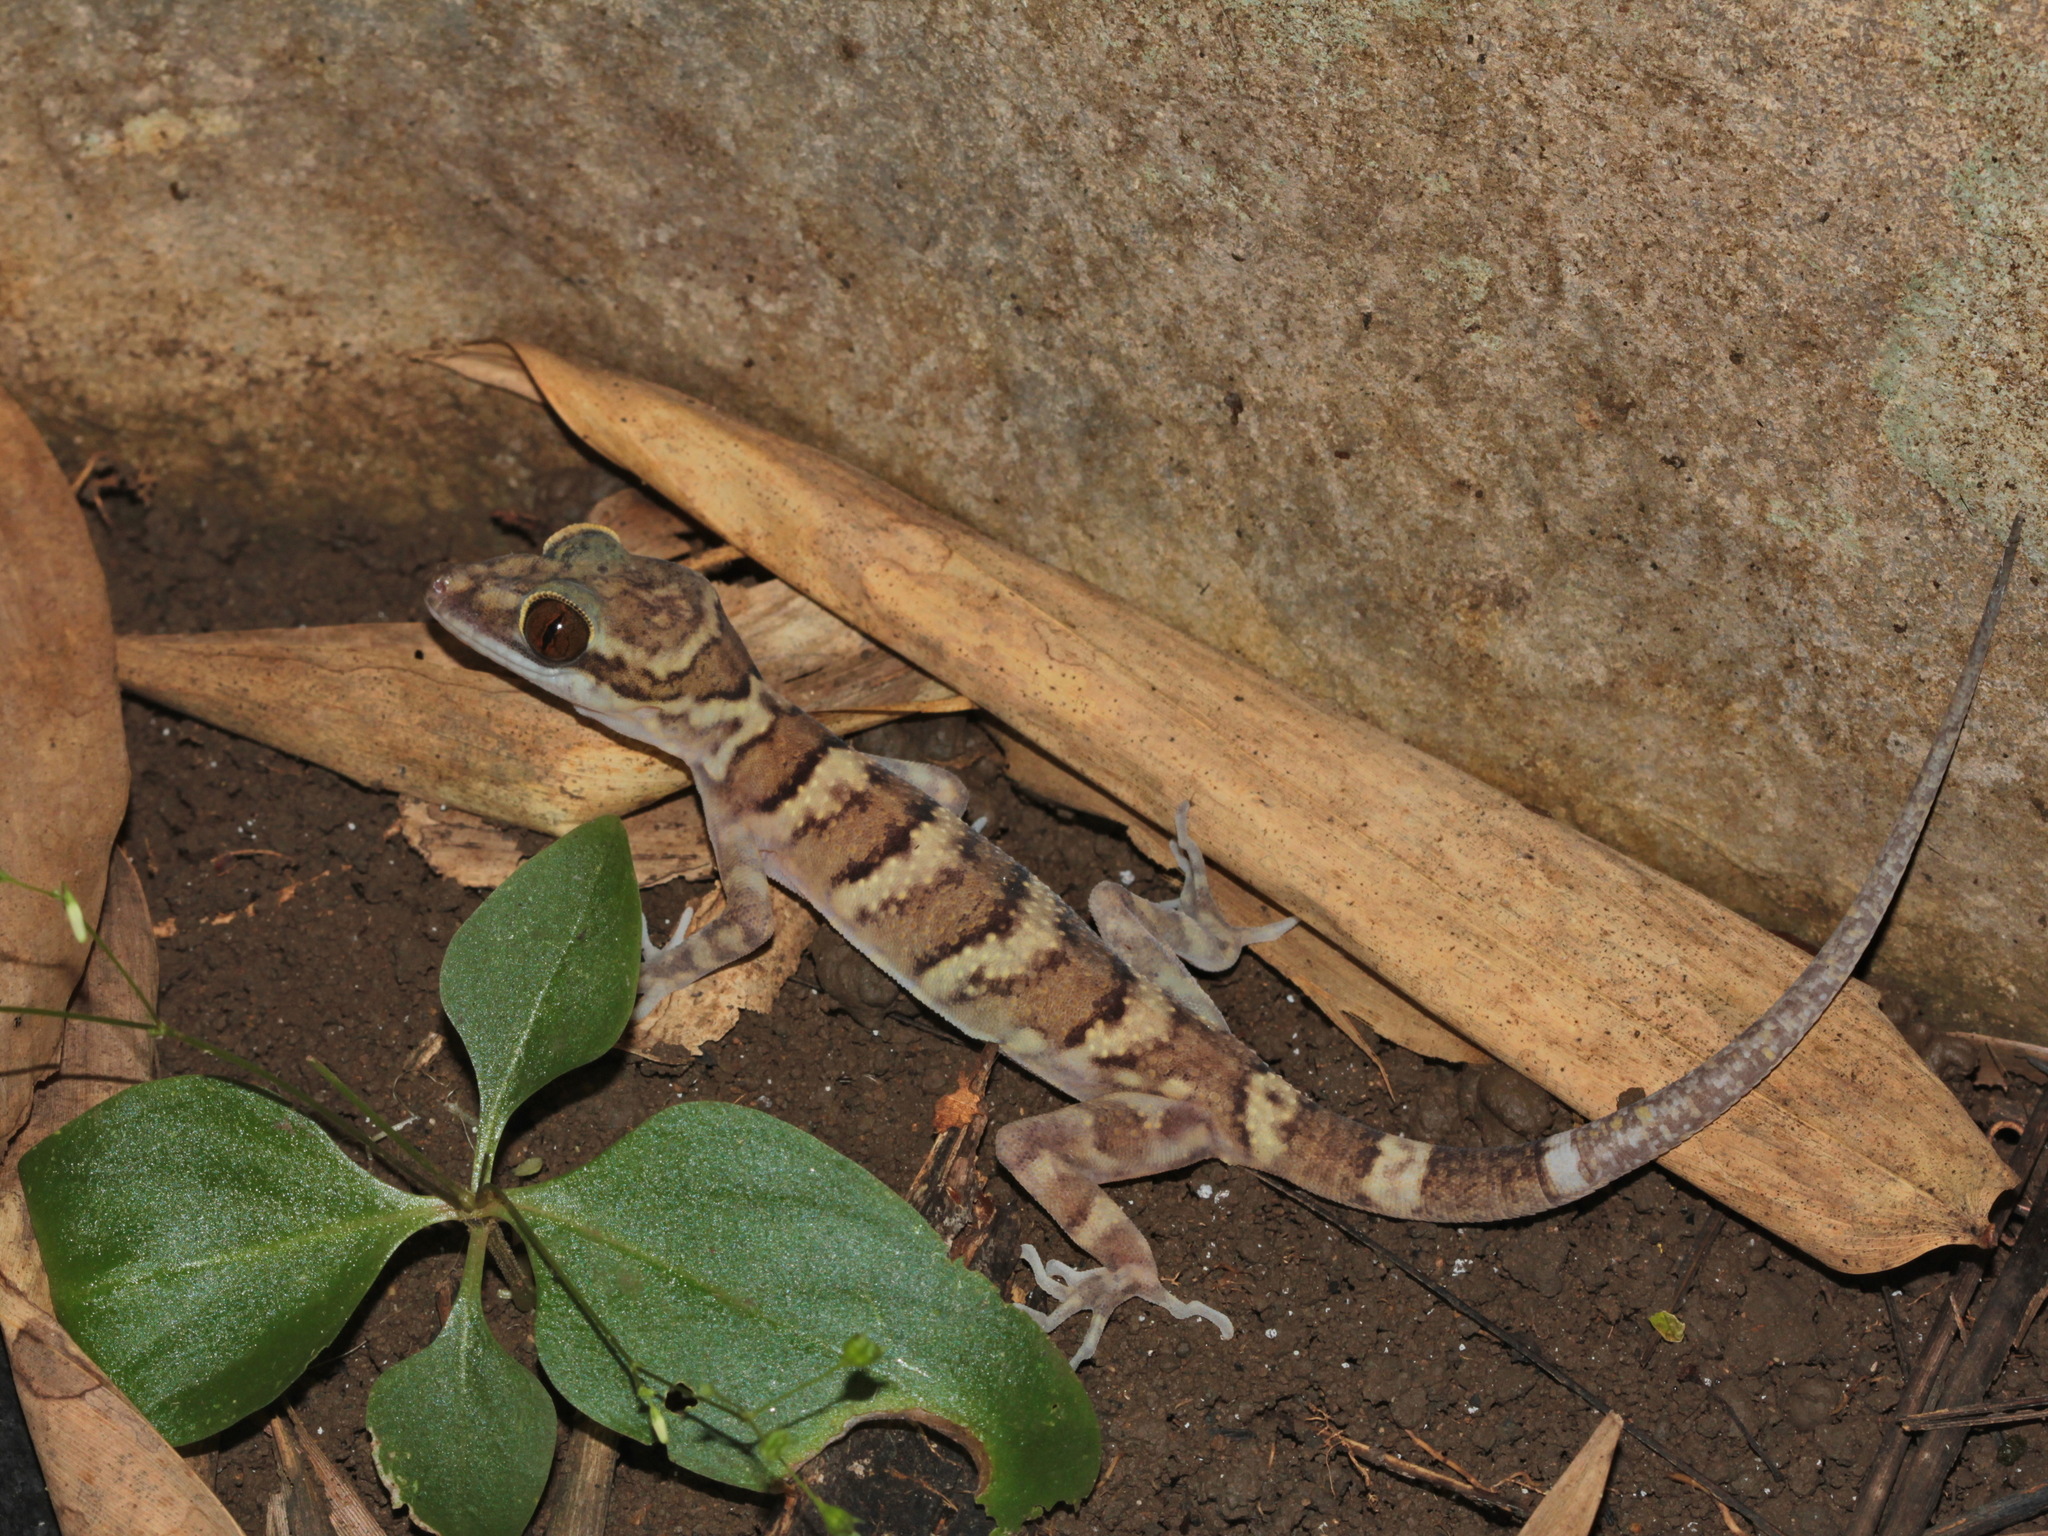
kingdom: Animalia
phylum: Chordata
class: Squamata
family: Gekkonidae
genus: Cyrtodactylus
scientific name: Cyrtodactylus tigroides
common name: Tiger bent-toed gecko
